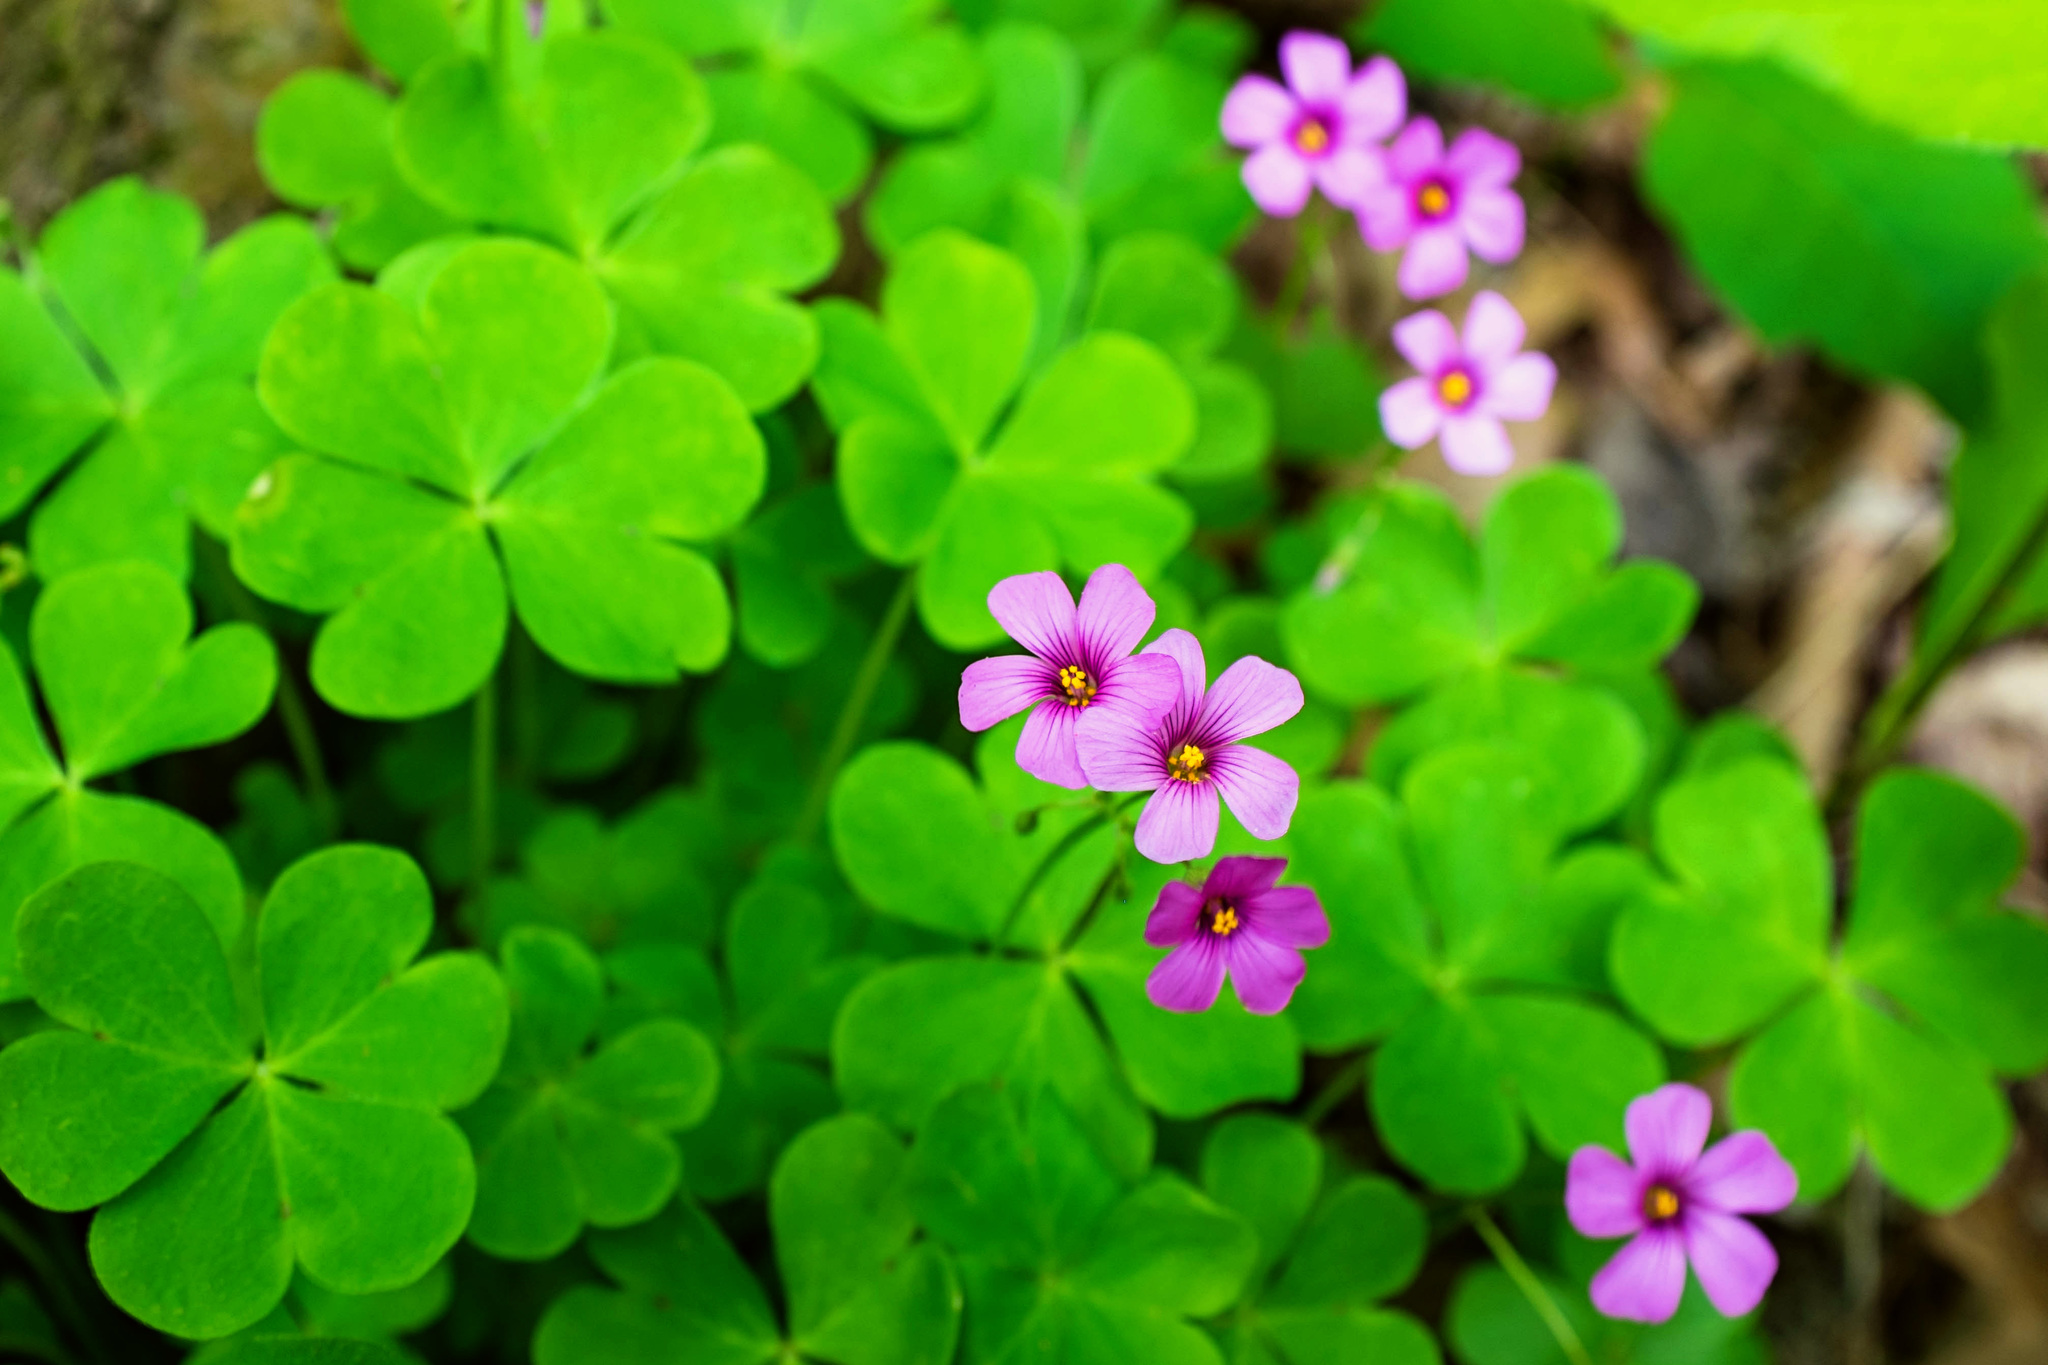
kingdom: Plantae
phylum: Tracheophyta
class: Magnoliopsida
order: Oxalidales
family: Oxalidaceae
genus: Oxalis
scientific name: Oxalis articulata
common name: Pink-sorrel
